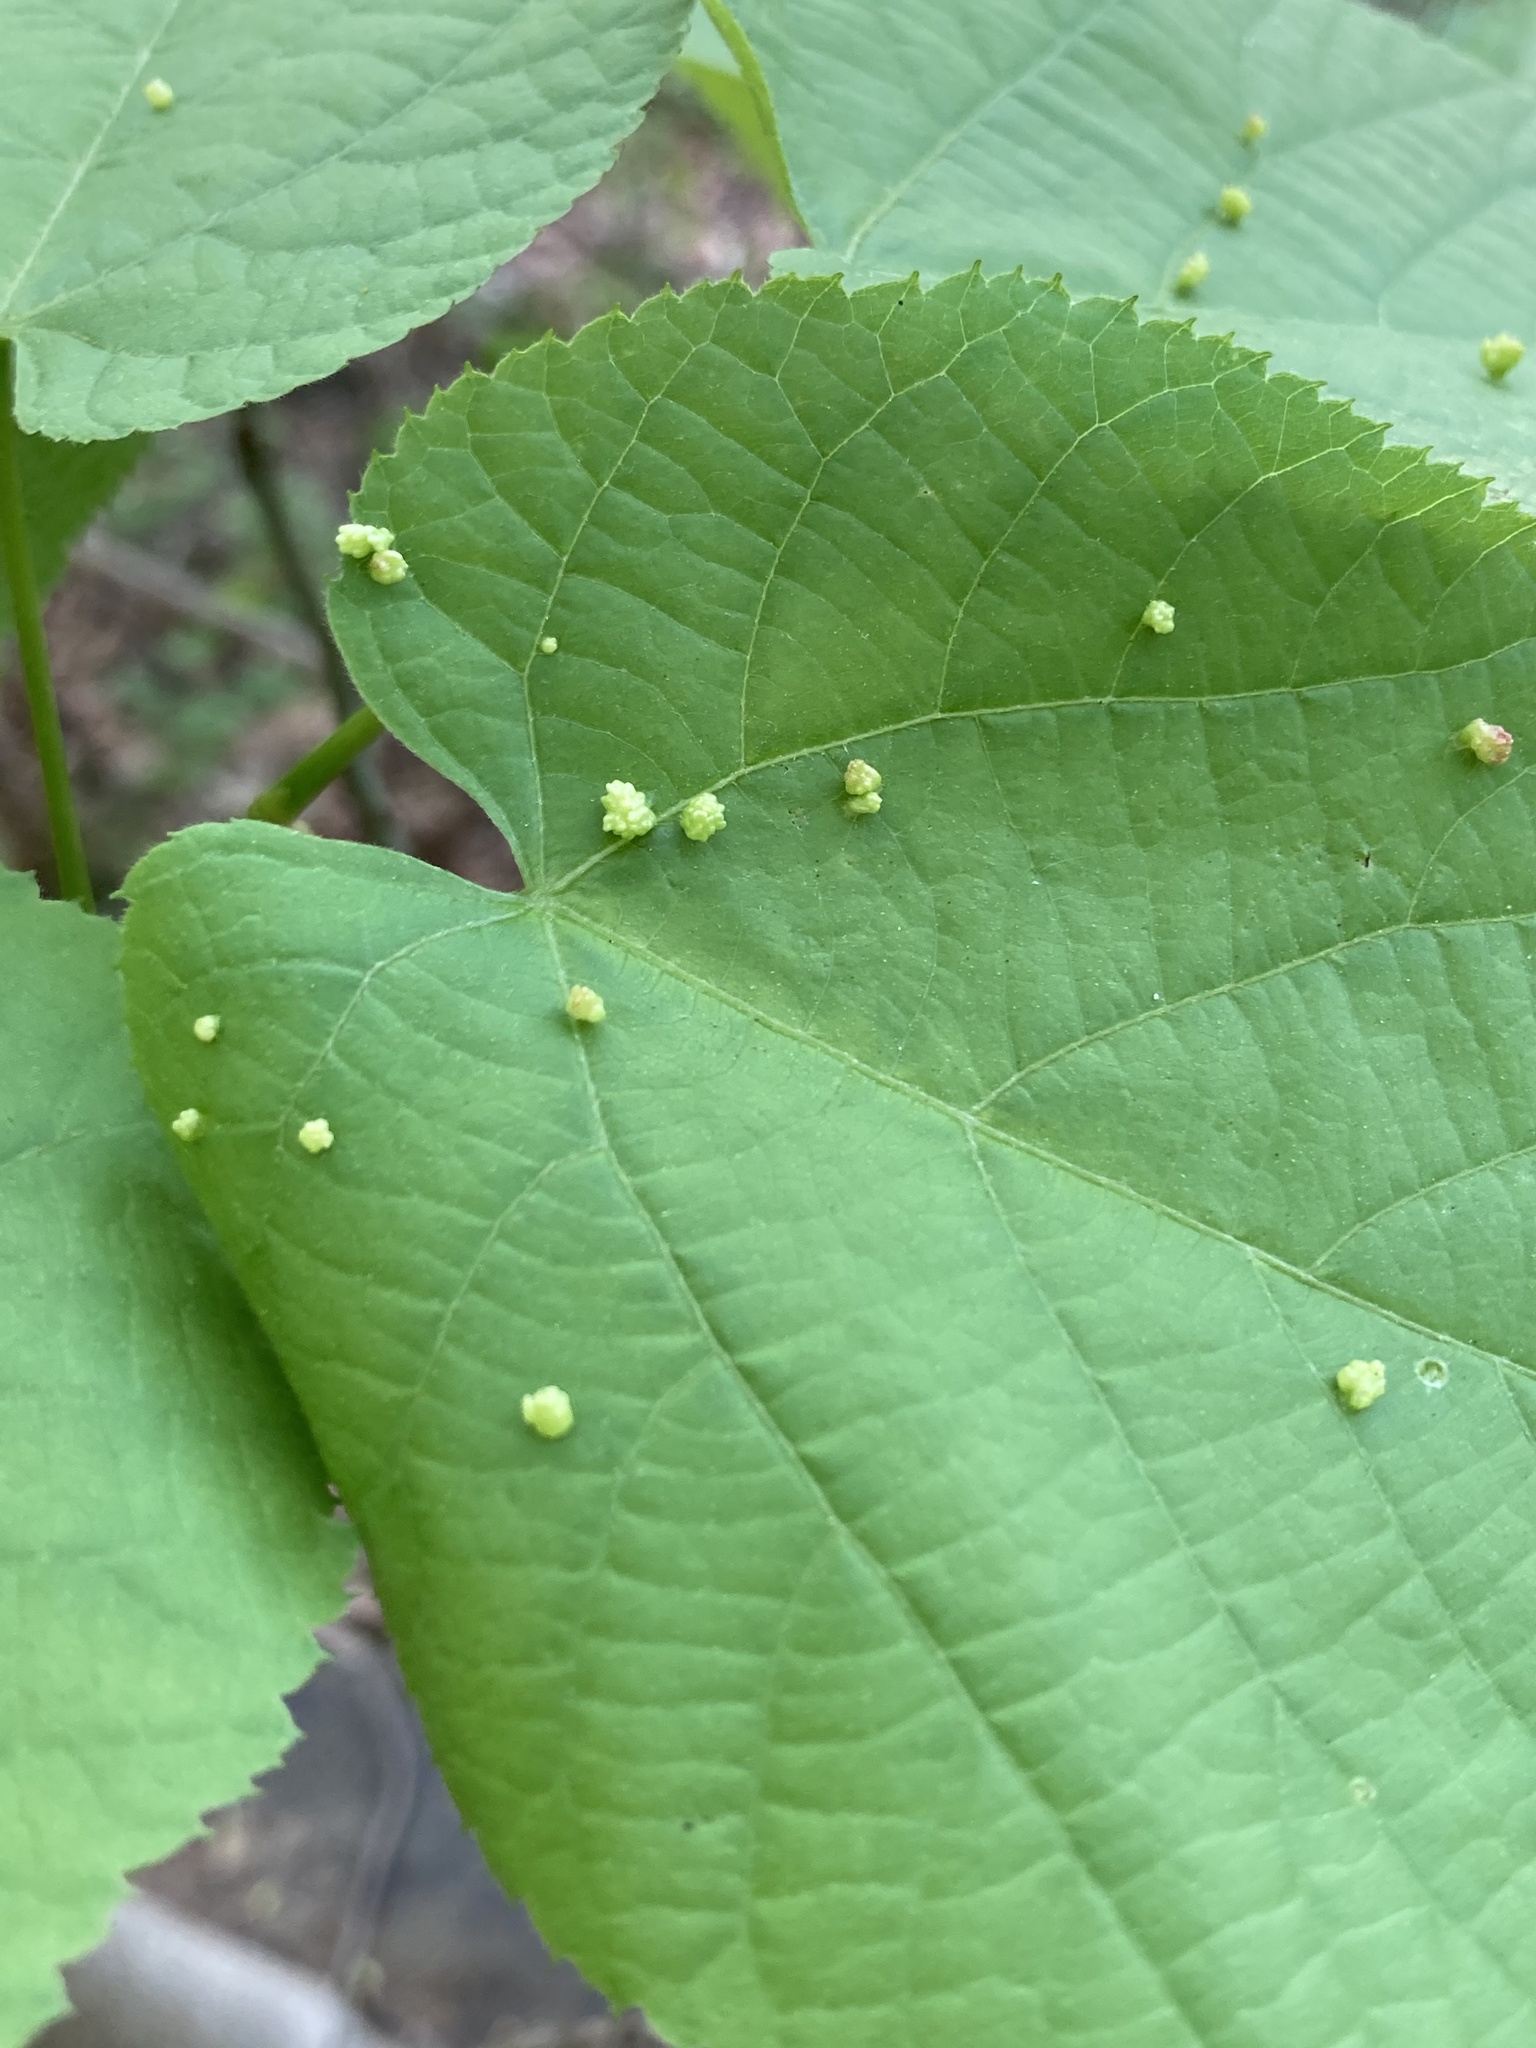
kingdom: Animalia
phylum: Arthropoda
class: Arachnida
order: Trombidiformes
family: Eriophyidae
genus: Eriophyes
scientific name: Eriophyes tiliae
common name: Red nail gall mite
